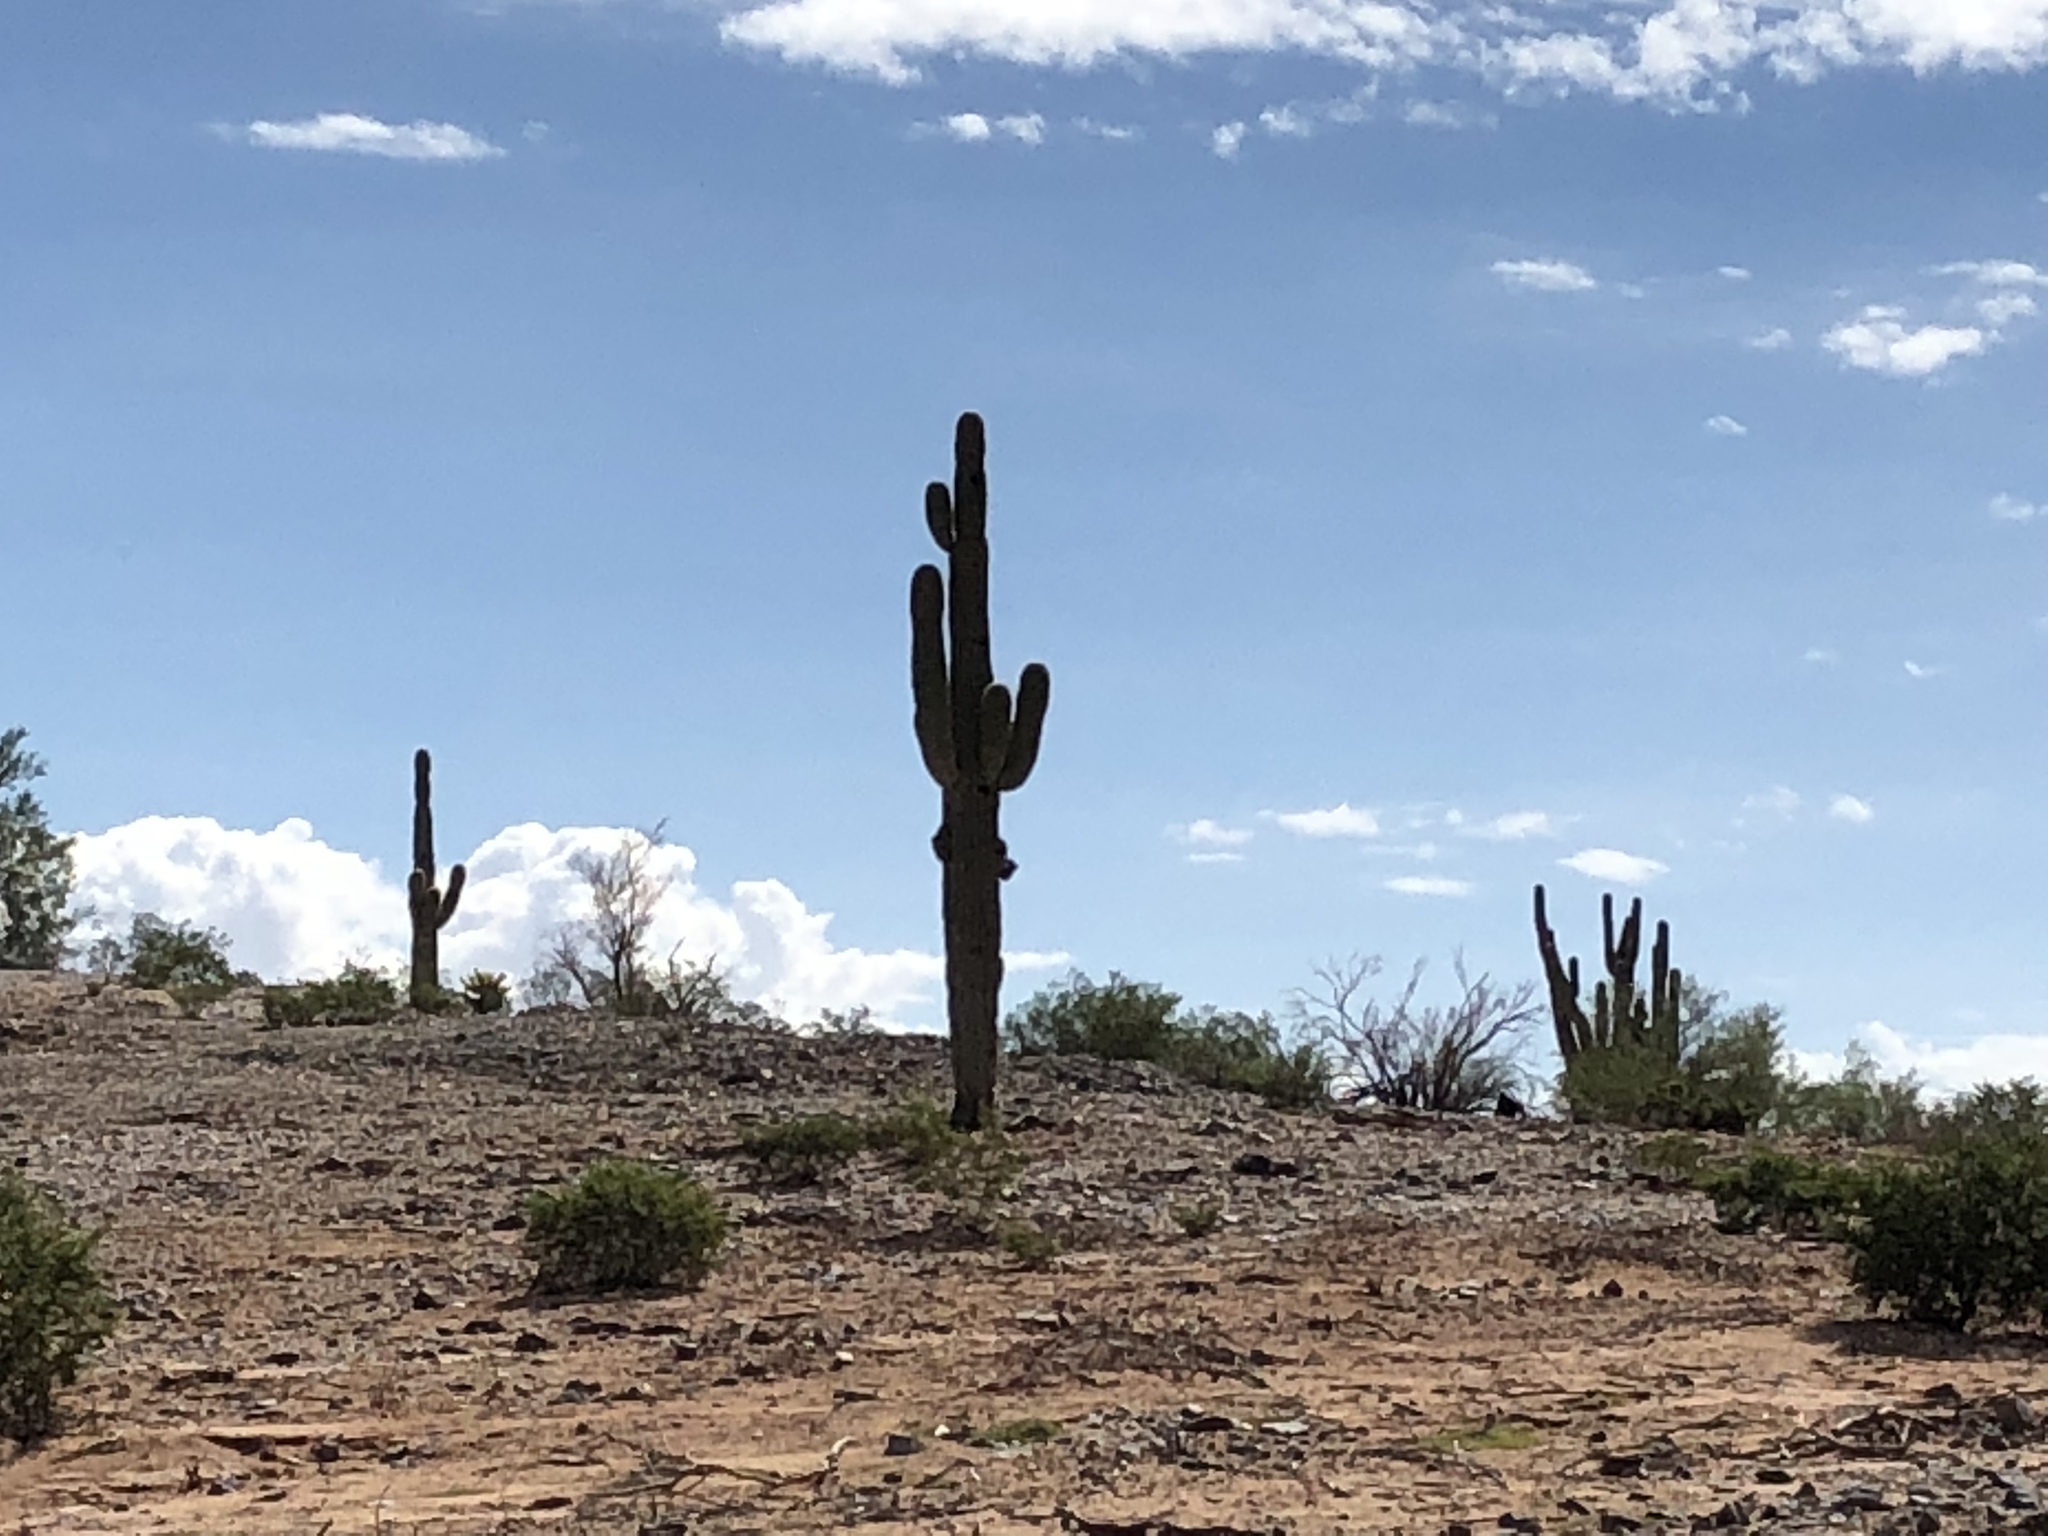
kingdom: Plantae
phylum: Tracheophyta
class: Magnoliopsida
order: Caryophyllales
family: Cactaceae
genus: Carnegiea
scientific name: Carnegiea gigantea
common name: Saguaro
